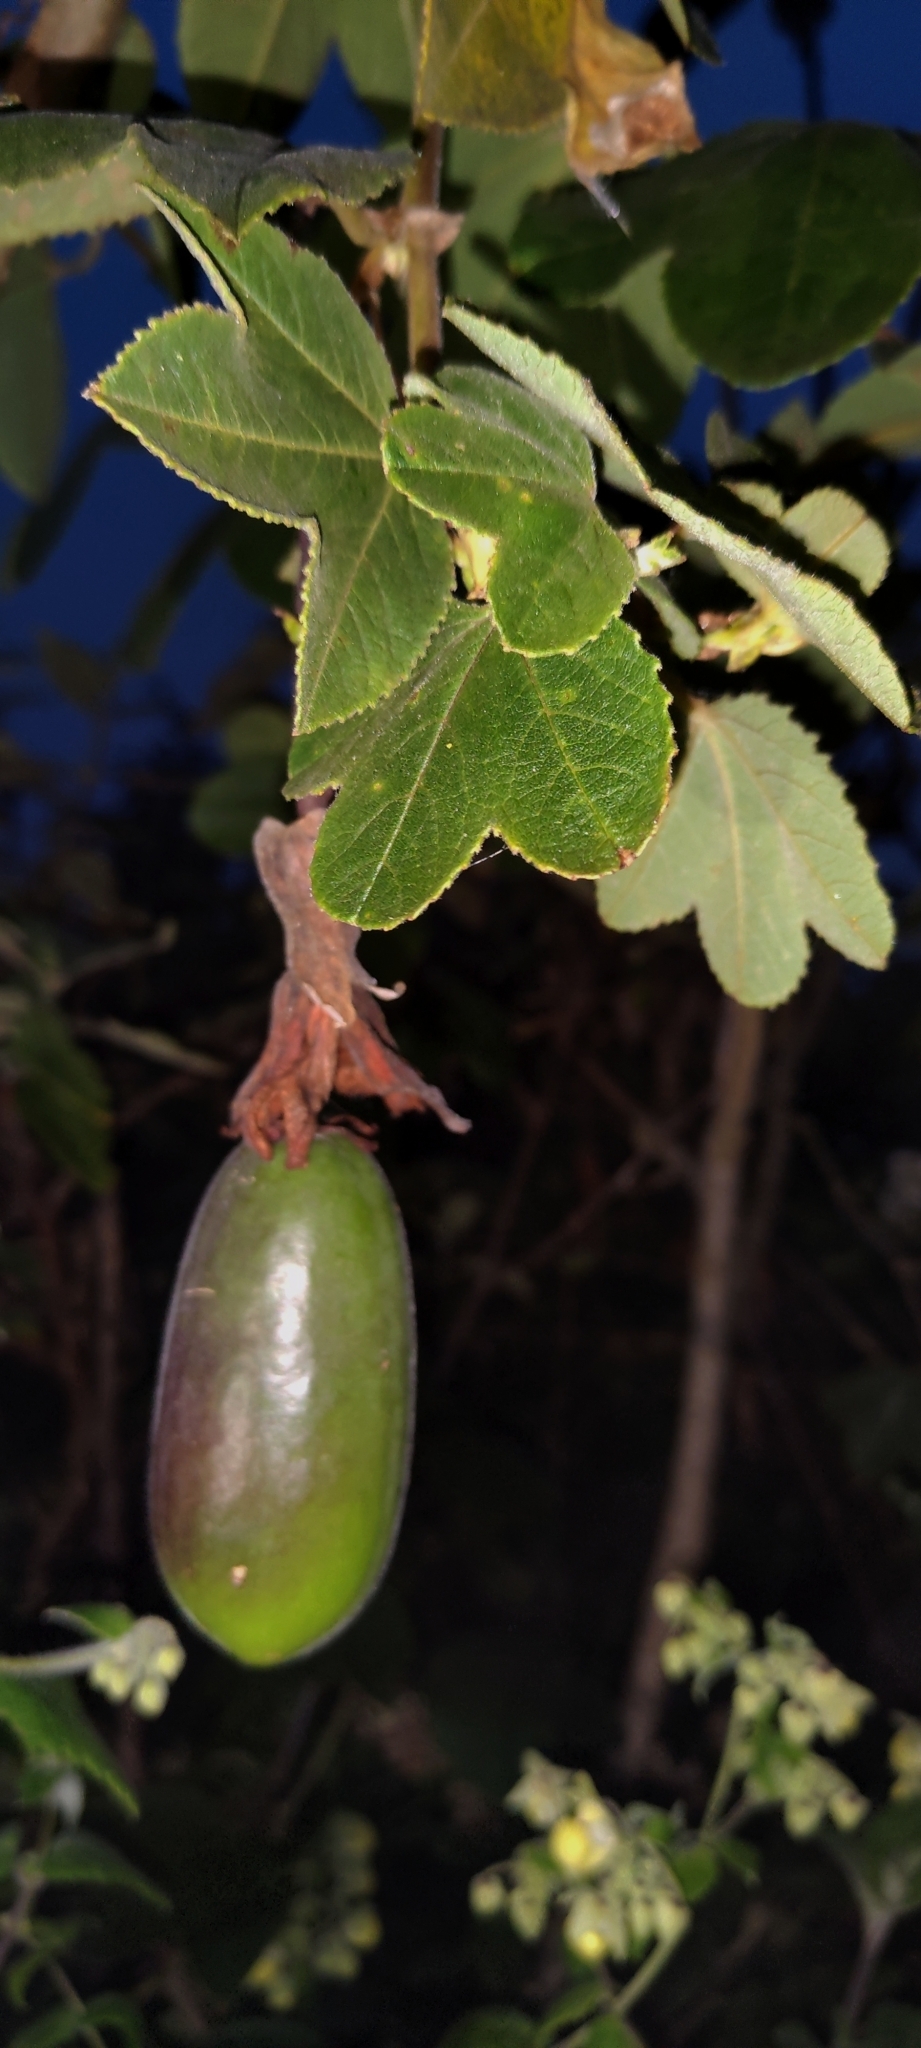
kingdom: Plantae
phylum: Tracheophyta
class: Magnoliopsida
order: Malpighiales
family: Passifloraceae
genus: Passiflora
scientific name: Passiflora tripartita
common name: Banana poka
